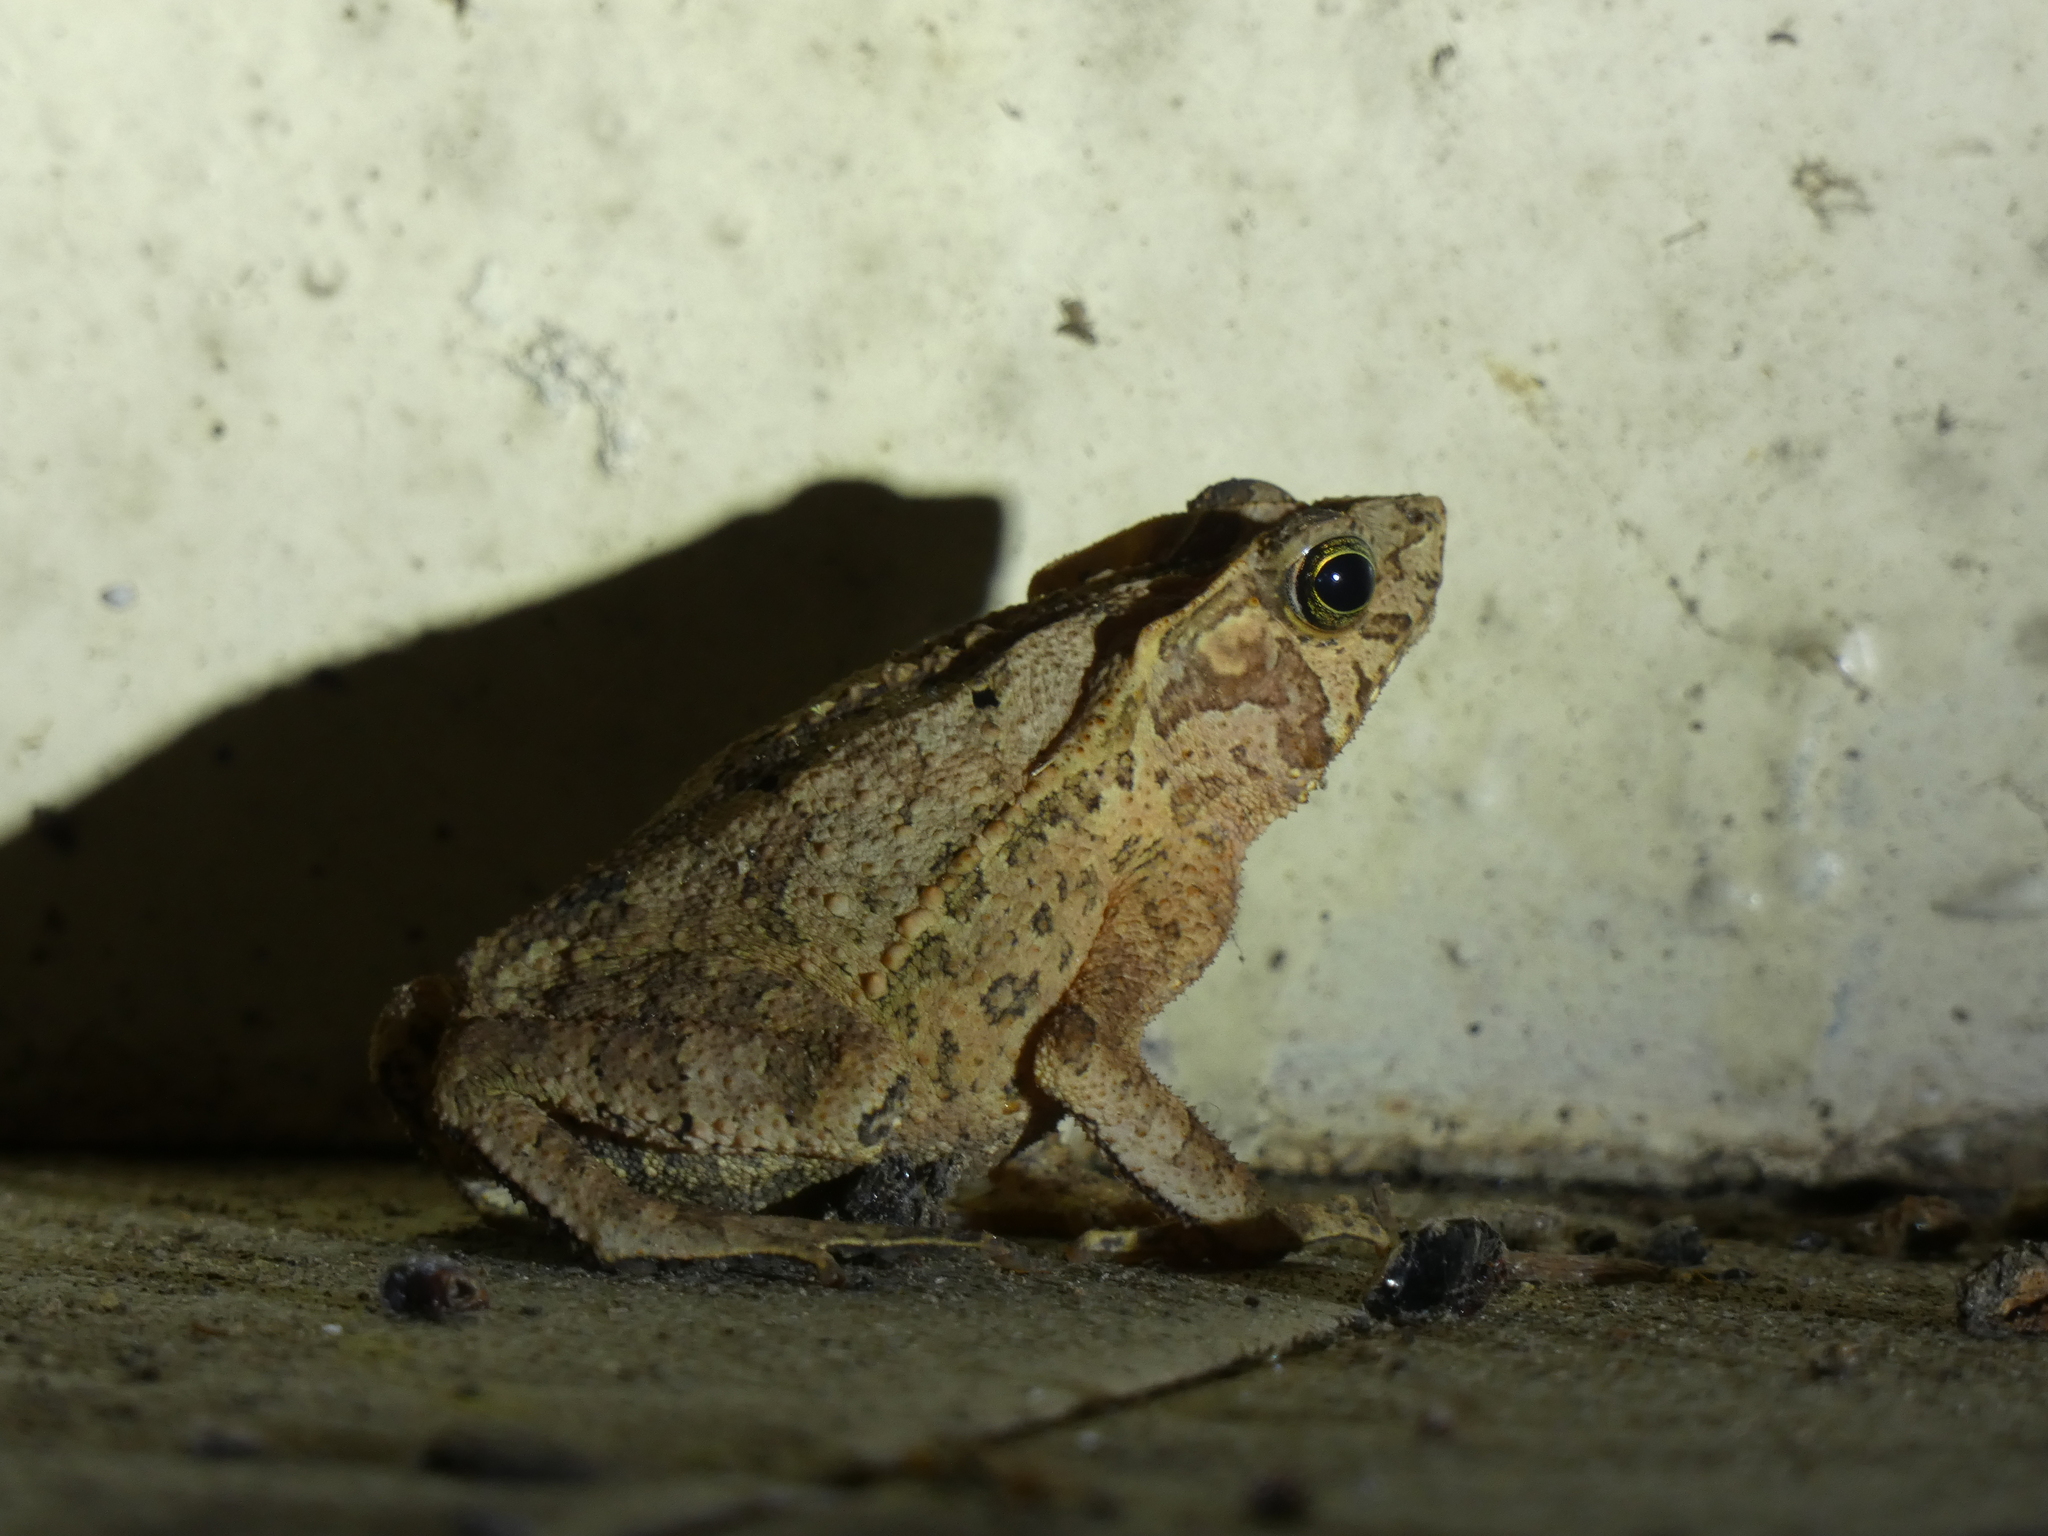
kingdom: Animalia
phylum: Chordata
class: Amphibia
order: Anura
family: Bufonidae
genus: Rhinella
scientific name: Rhinella margaritifera
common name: Mitred toad
